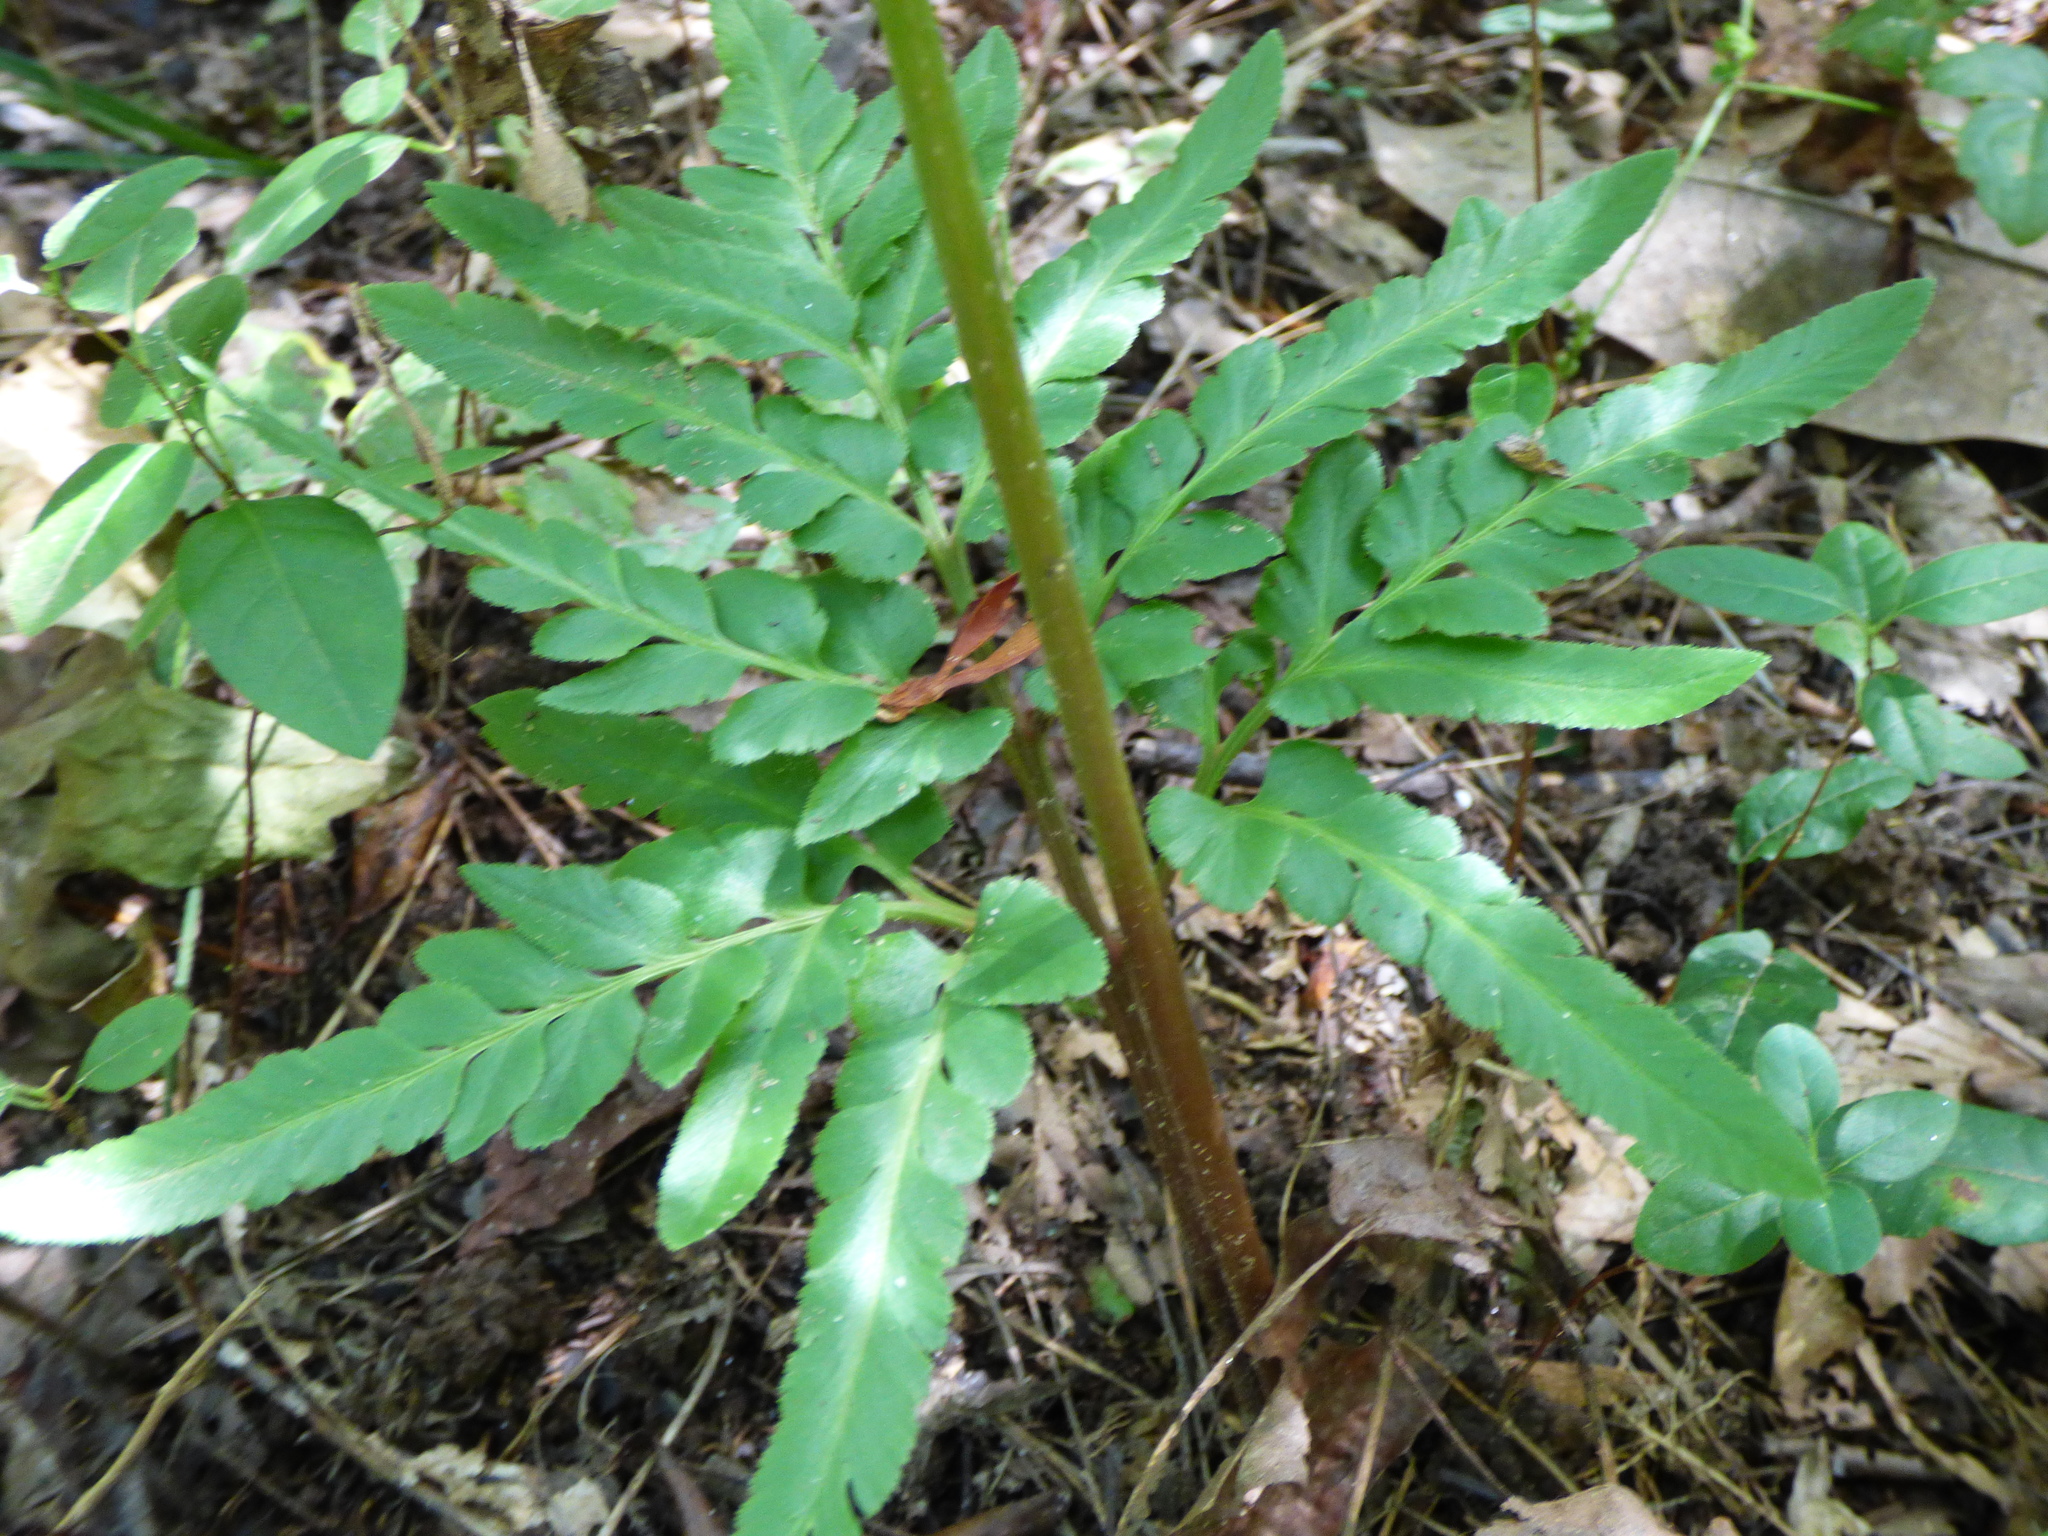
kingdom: Plantae
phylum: Tracheophyta
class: Polypodiopsida
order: Ophioglossales
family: Ophioglossaceae
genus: Sceptridium
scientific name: Sceptridium dissectum
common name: Cut-leaved grapefern
